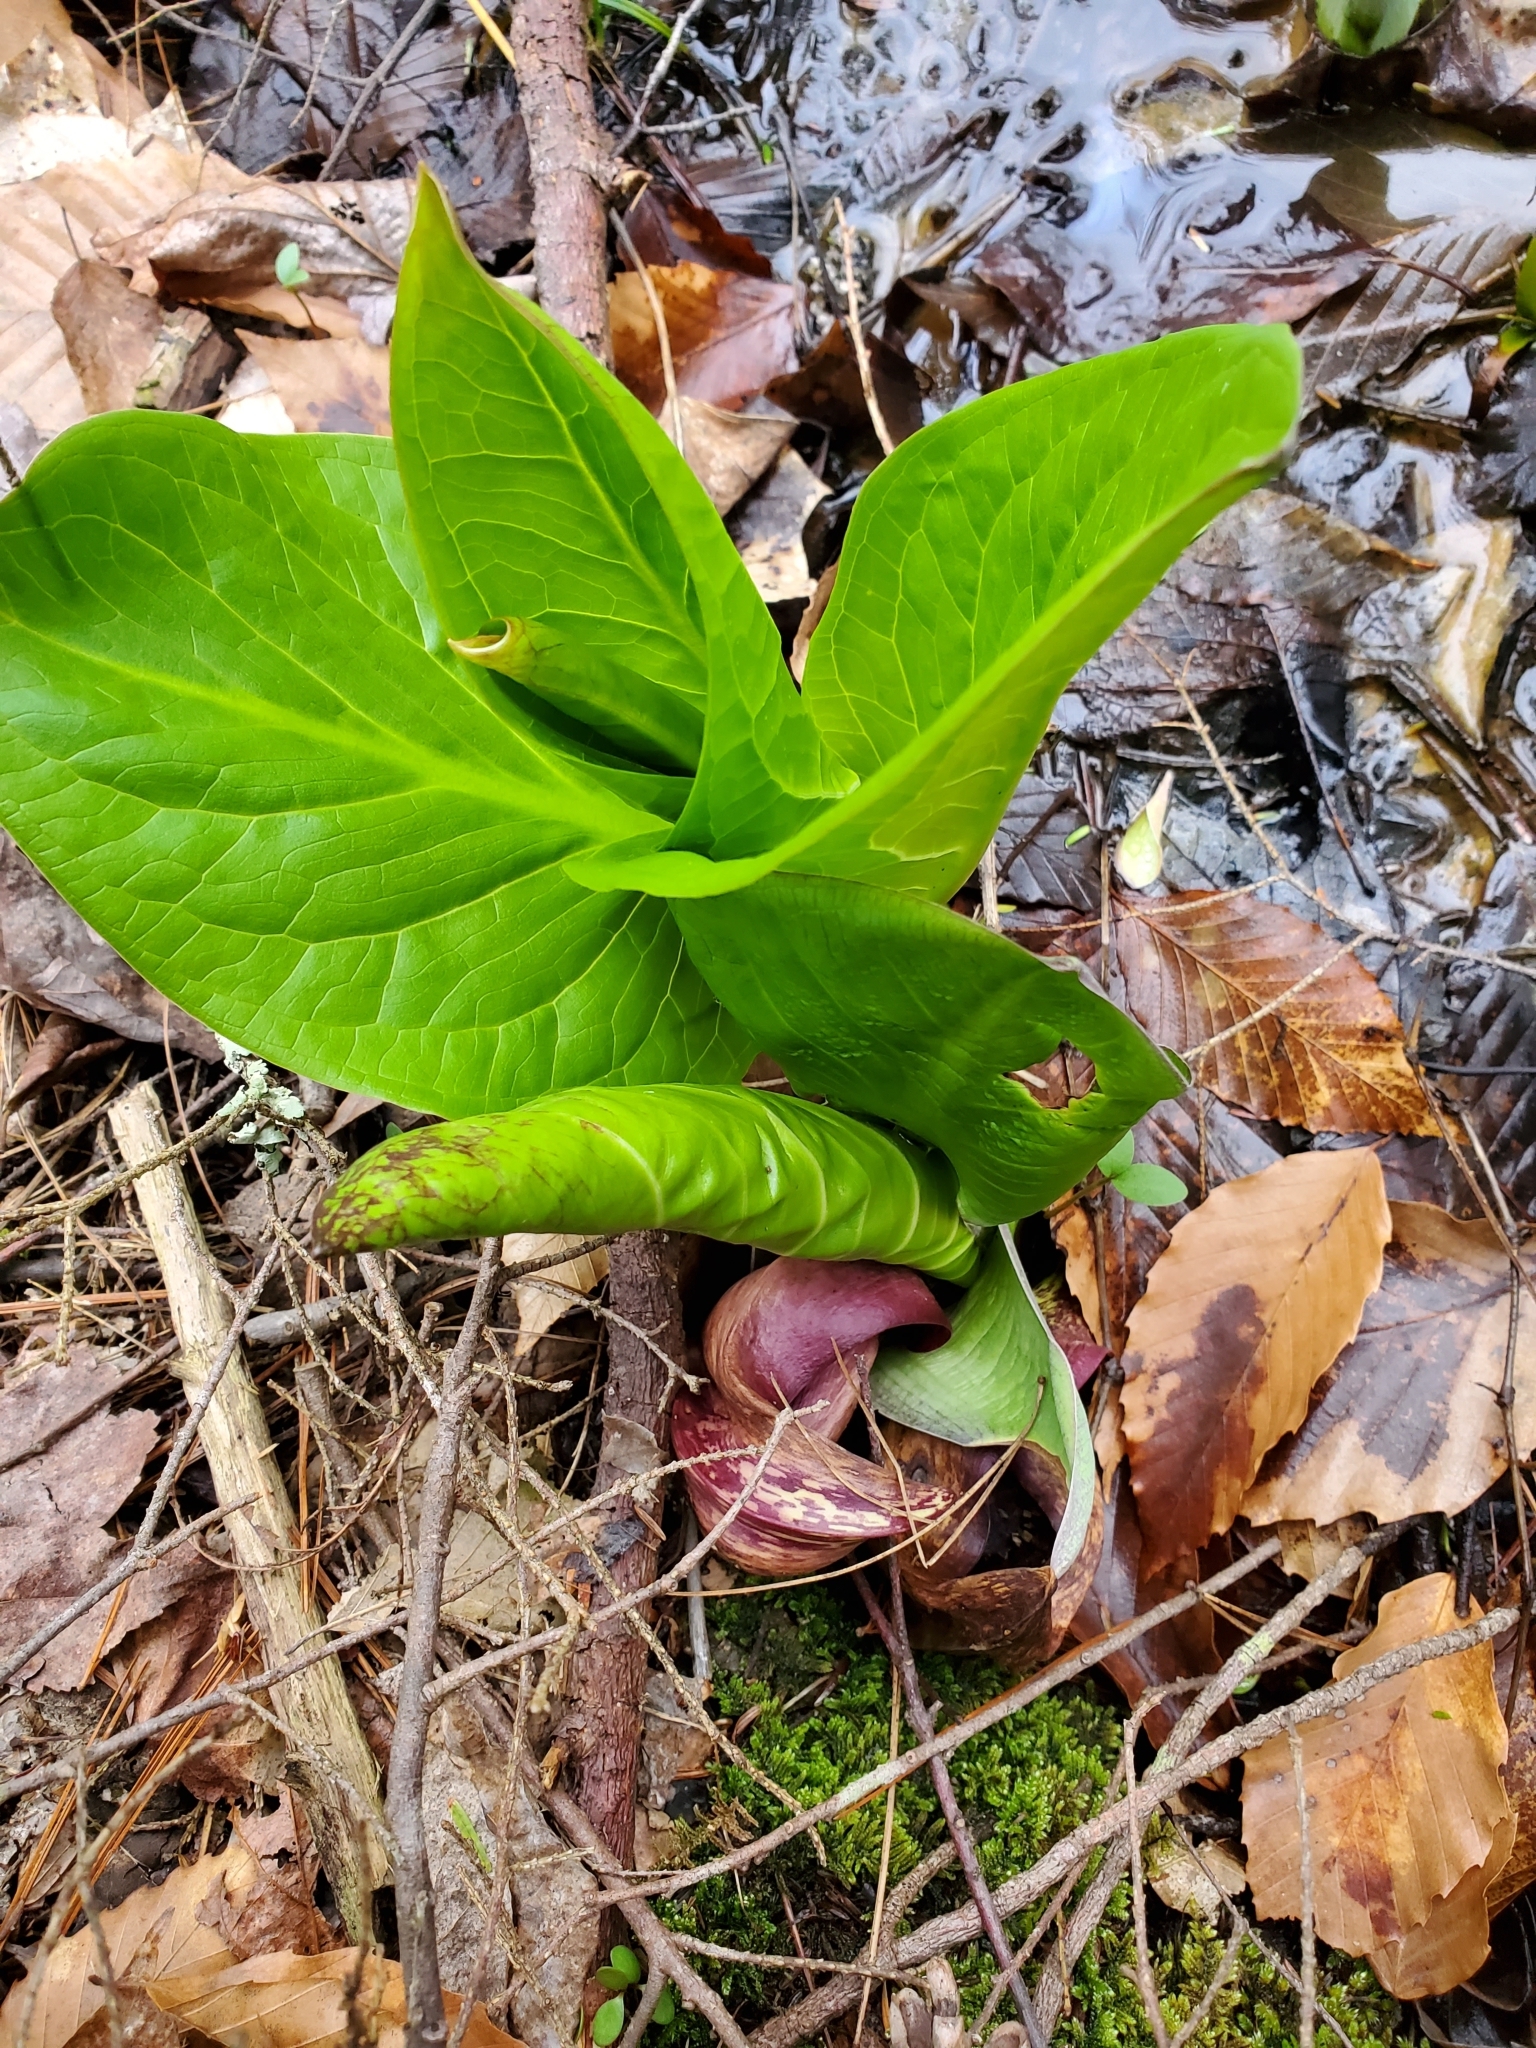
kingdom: Plantae
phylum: Tracheophyta
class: Liliopsida
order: Alismatales
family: Araceae
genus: Symplocarpus
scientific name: Symplocarpus foetidus
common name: Eastern skunk cabbage
